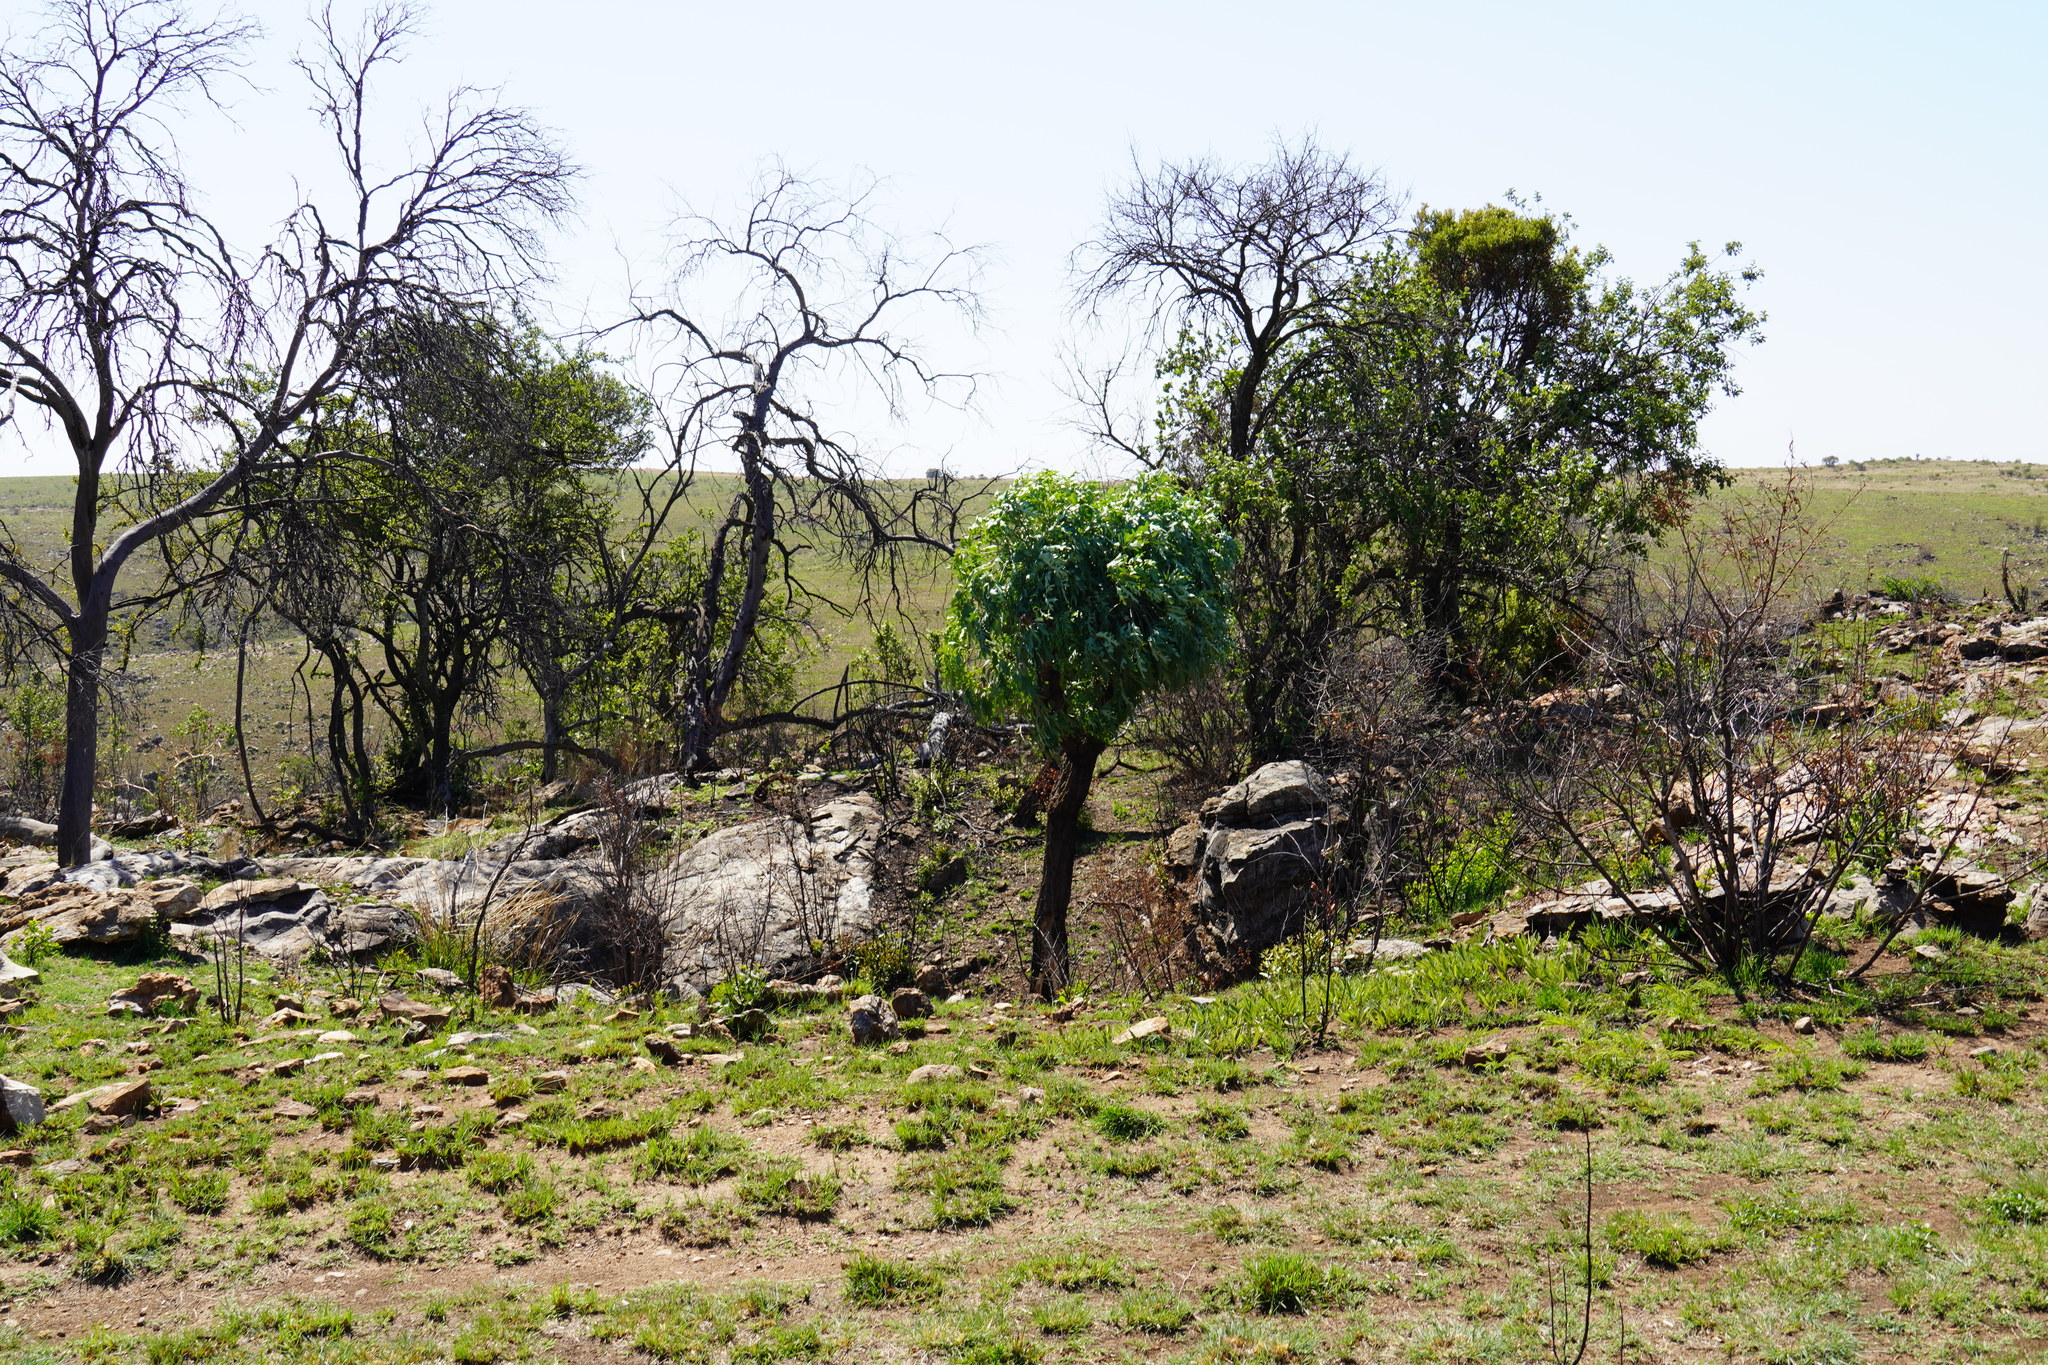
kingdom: Plantae
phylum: Tracheophyta
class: Magnoliopsida
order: Apiales
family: Araliaceae
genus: Cussonia
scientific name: Cussonia paniculata
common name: Cabbagetree
